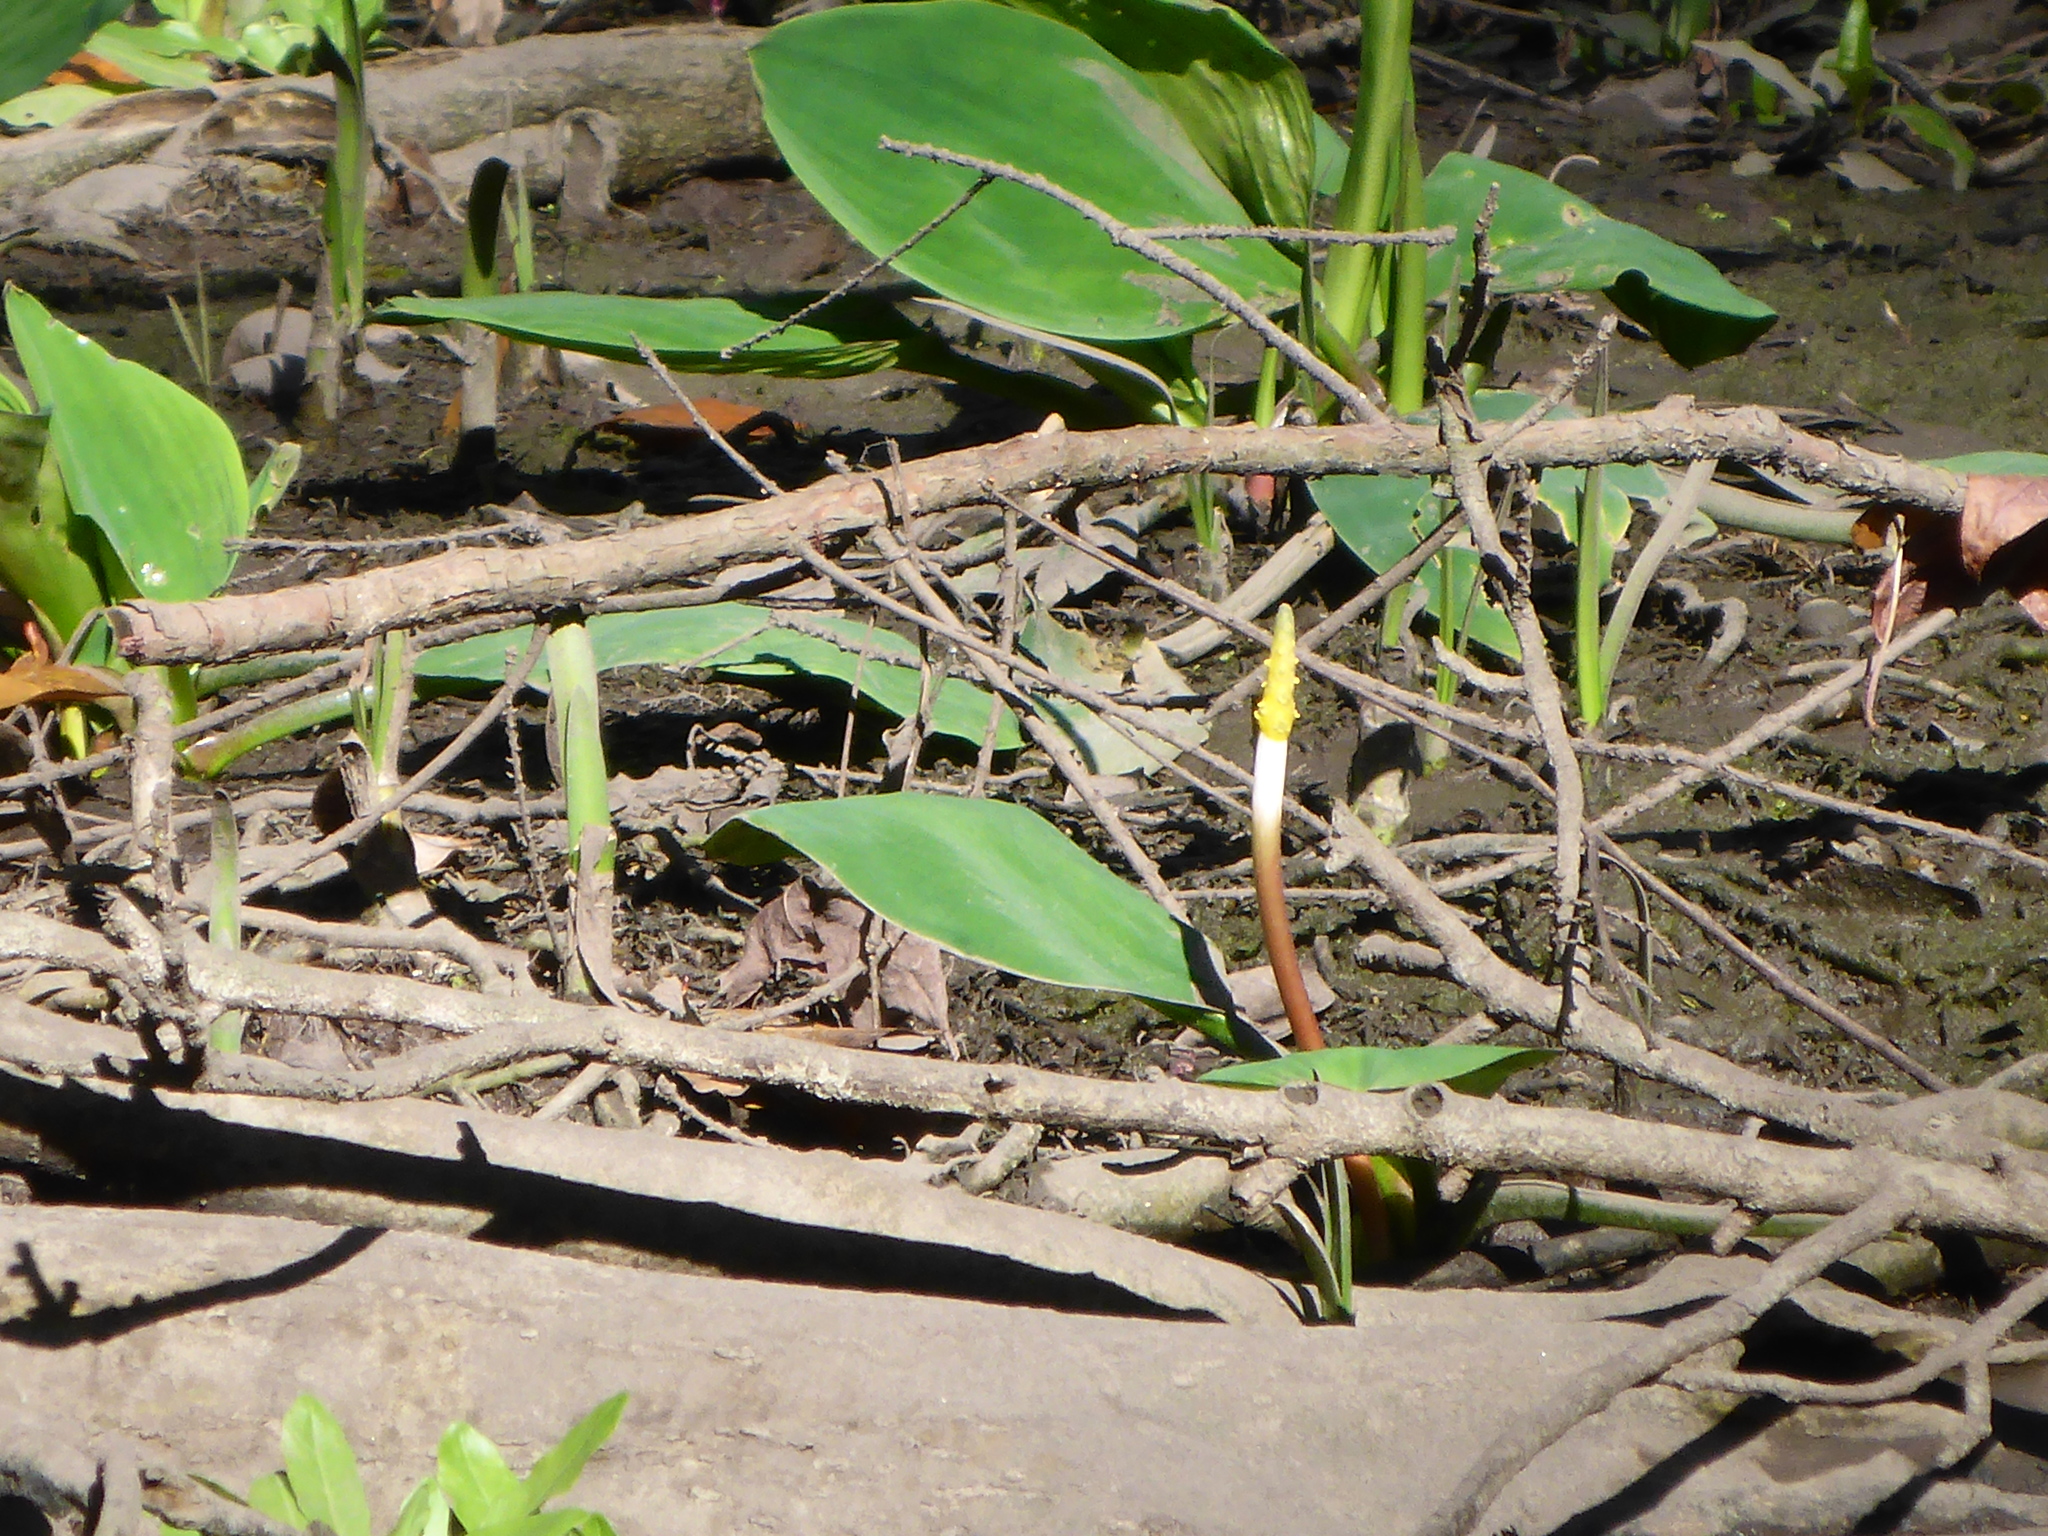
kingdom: Plantae
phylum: Tracheophyta
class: Liliopsida
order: Alismatales
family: Araceae
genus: Orontium
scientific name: Orontium aquaticum
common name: Golden-club
